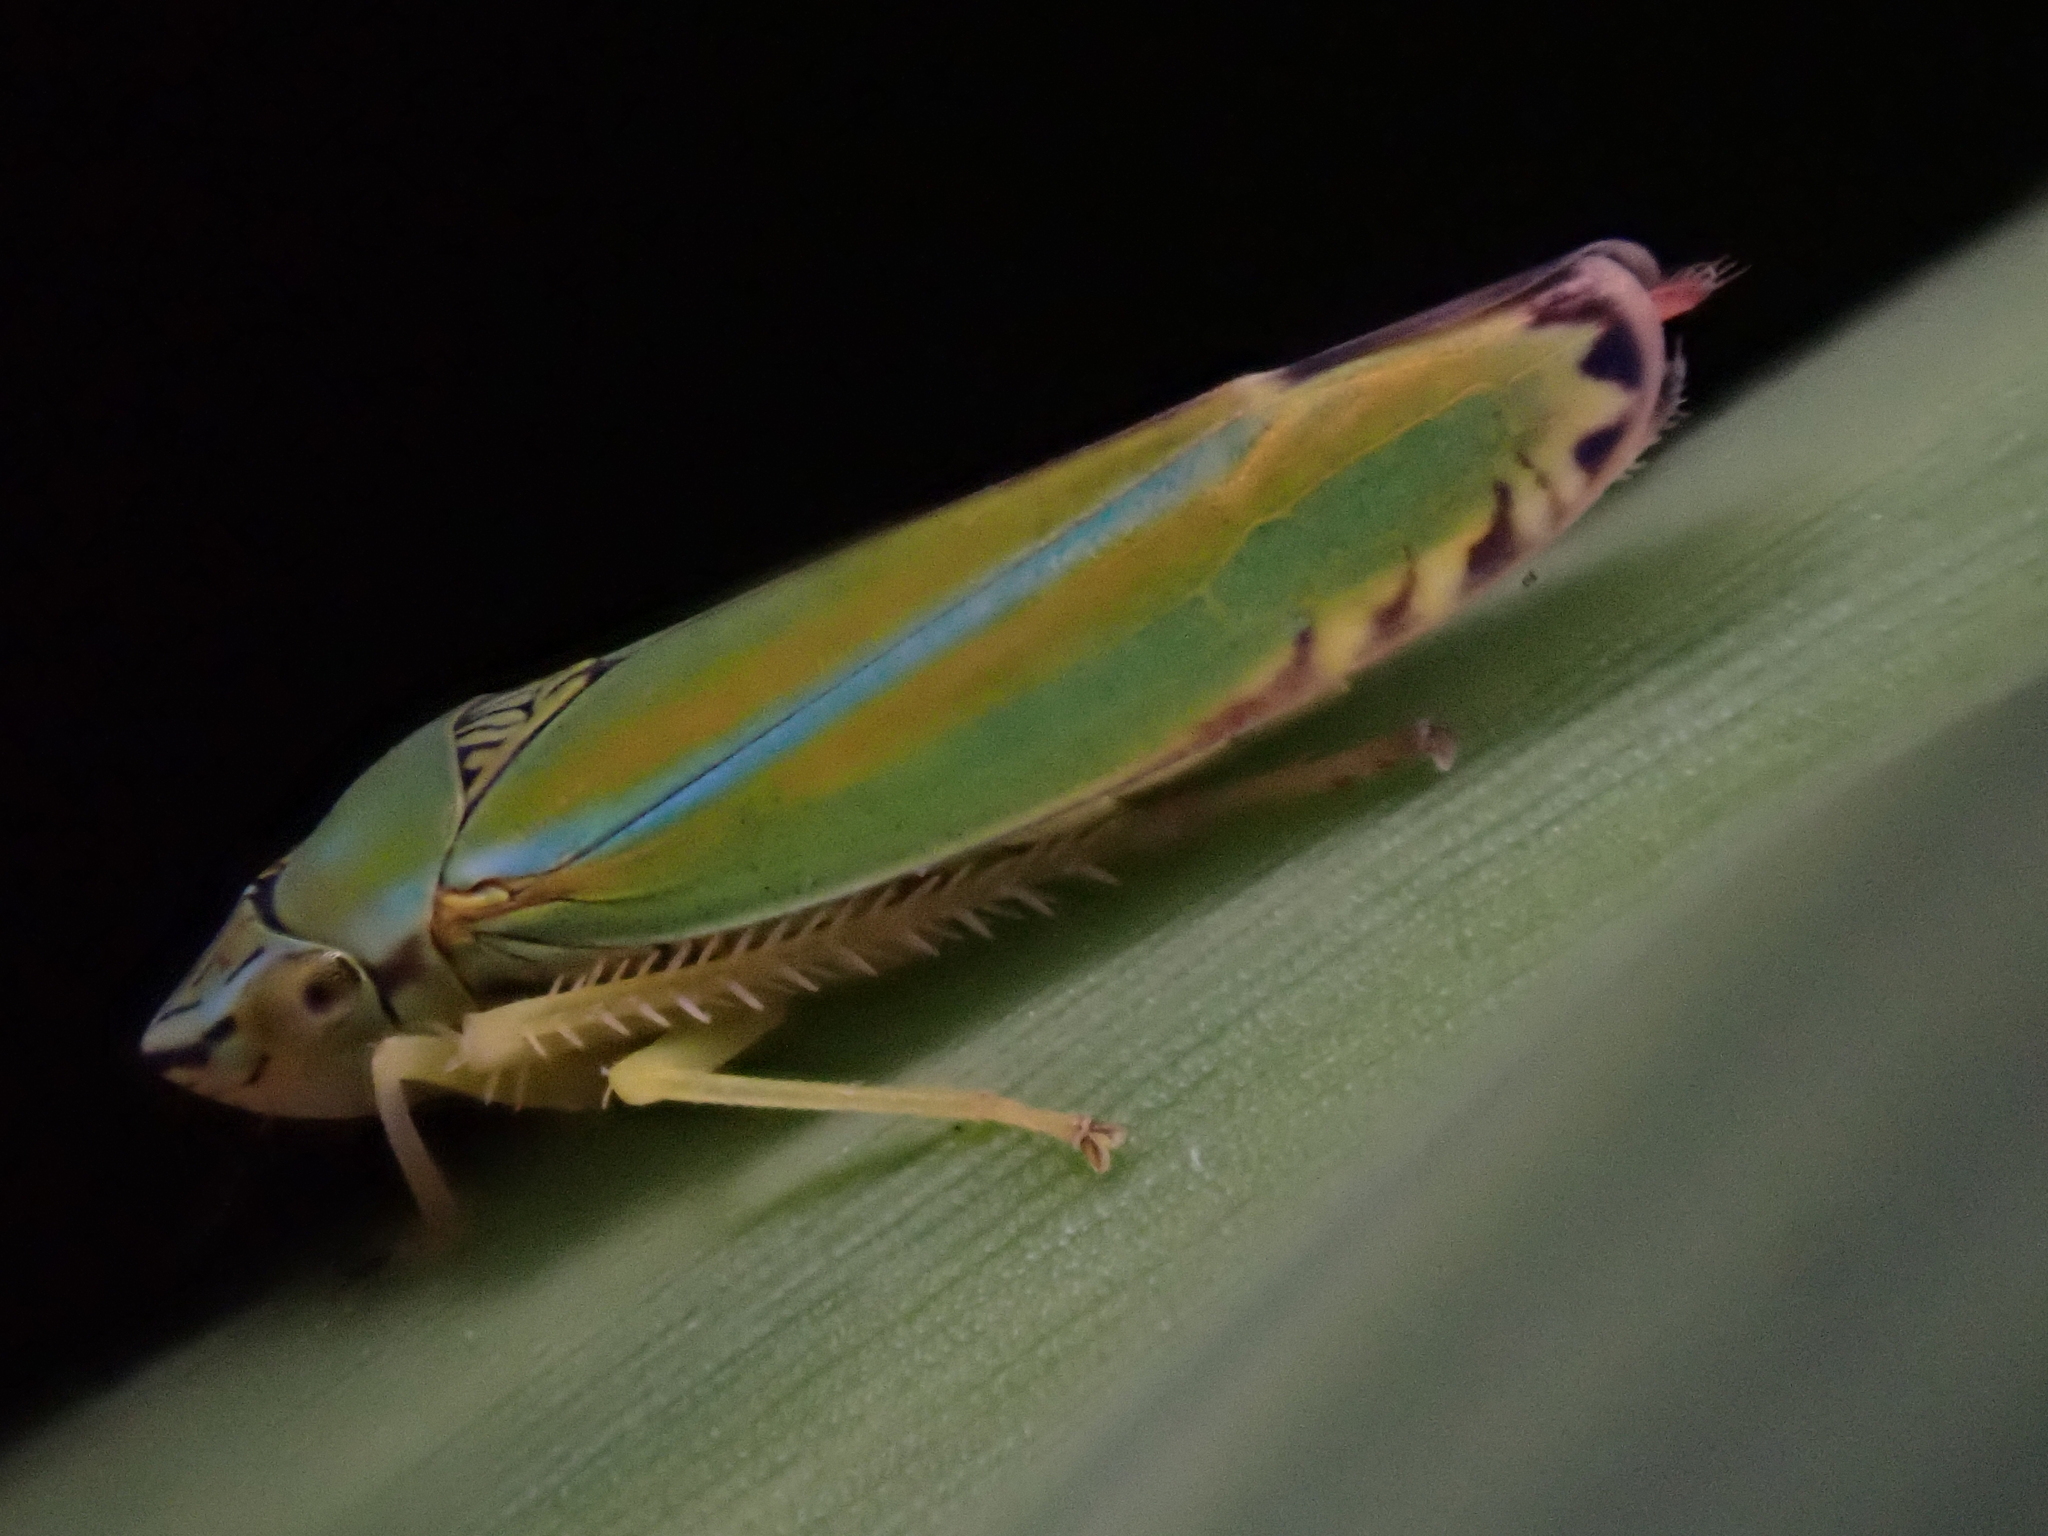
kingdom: Animalia
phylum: Arthropoda
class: Insecta
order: Hemiptera
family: Cicadellidae
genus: Graphocephala
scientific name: Graphocephala versuta
